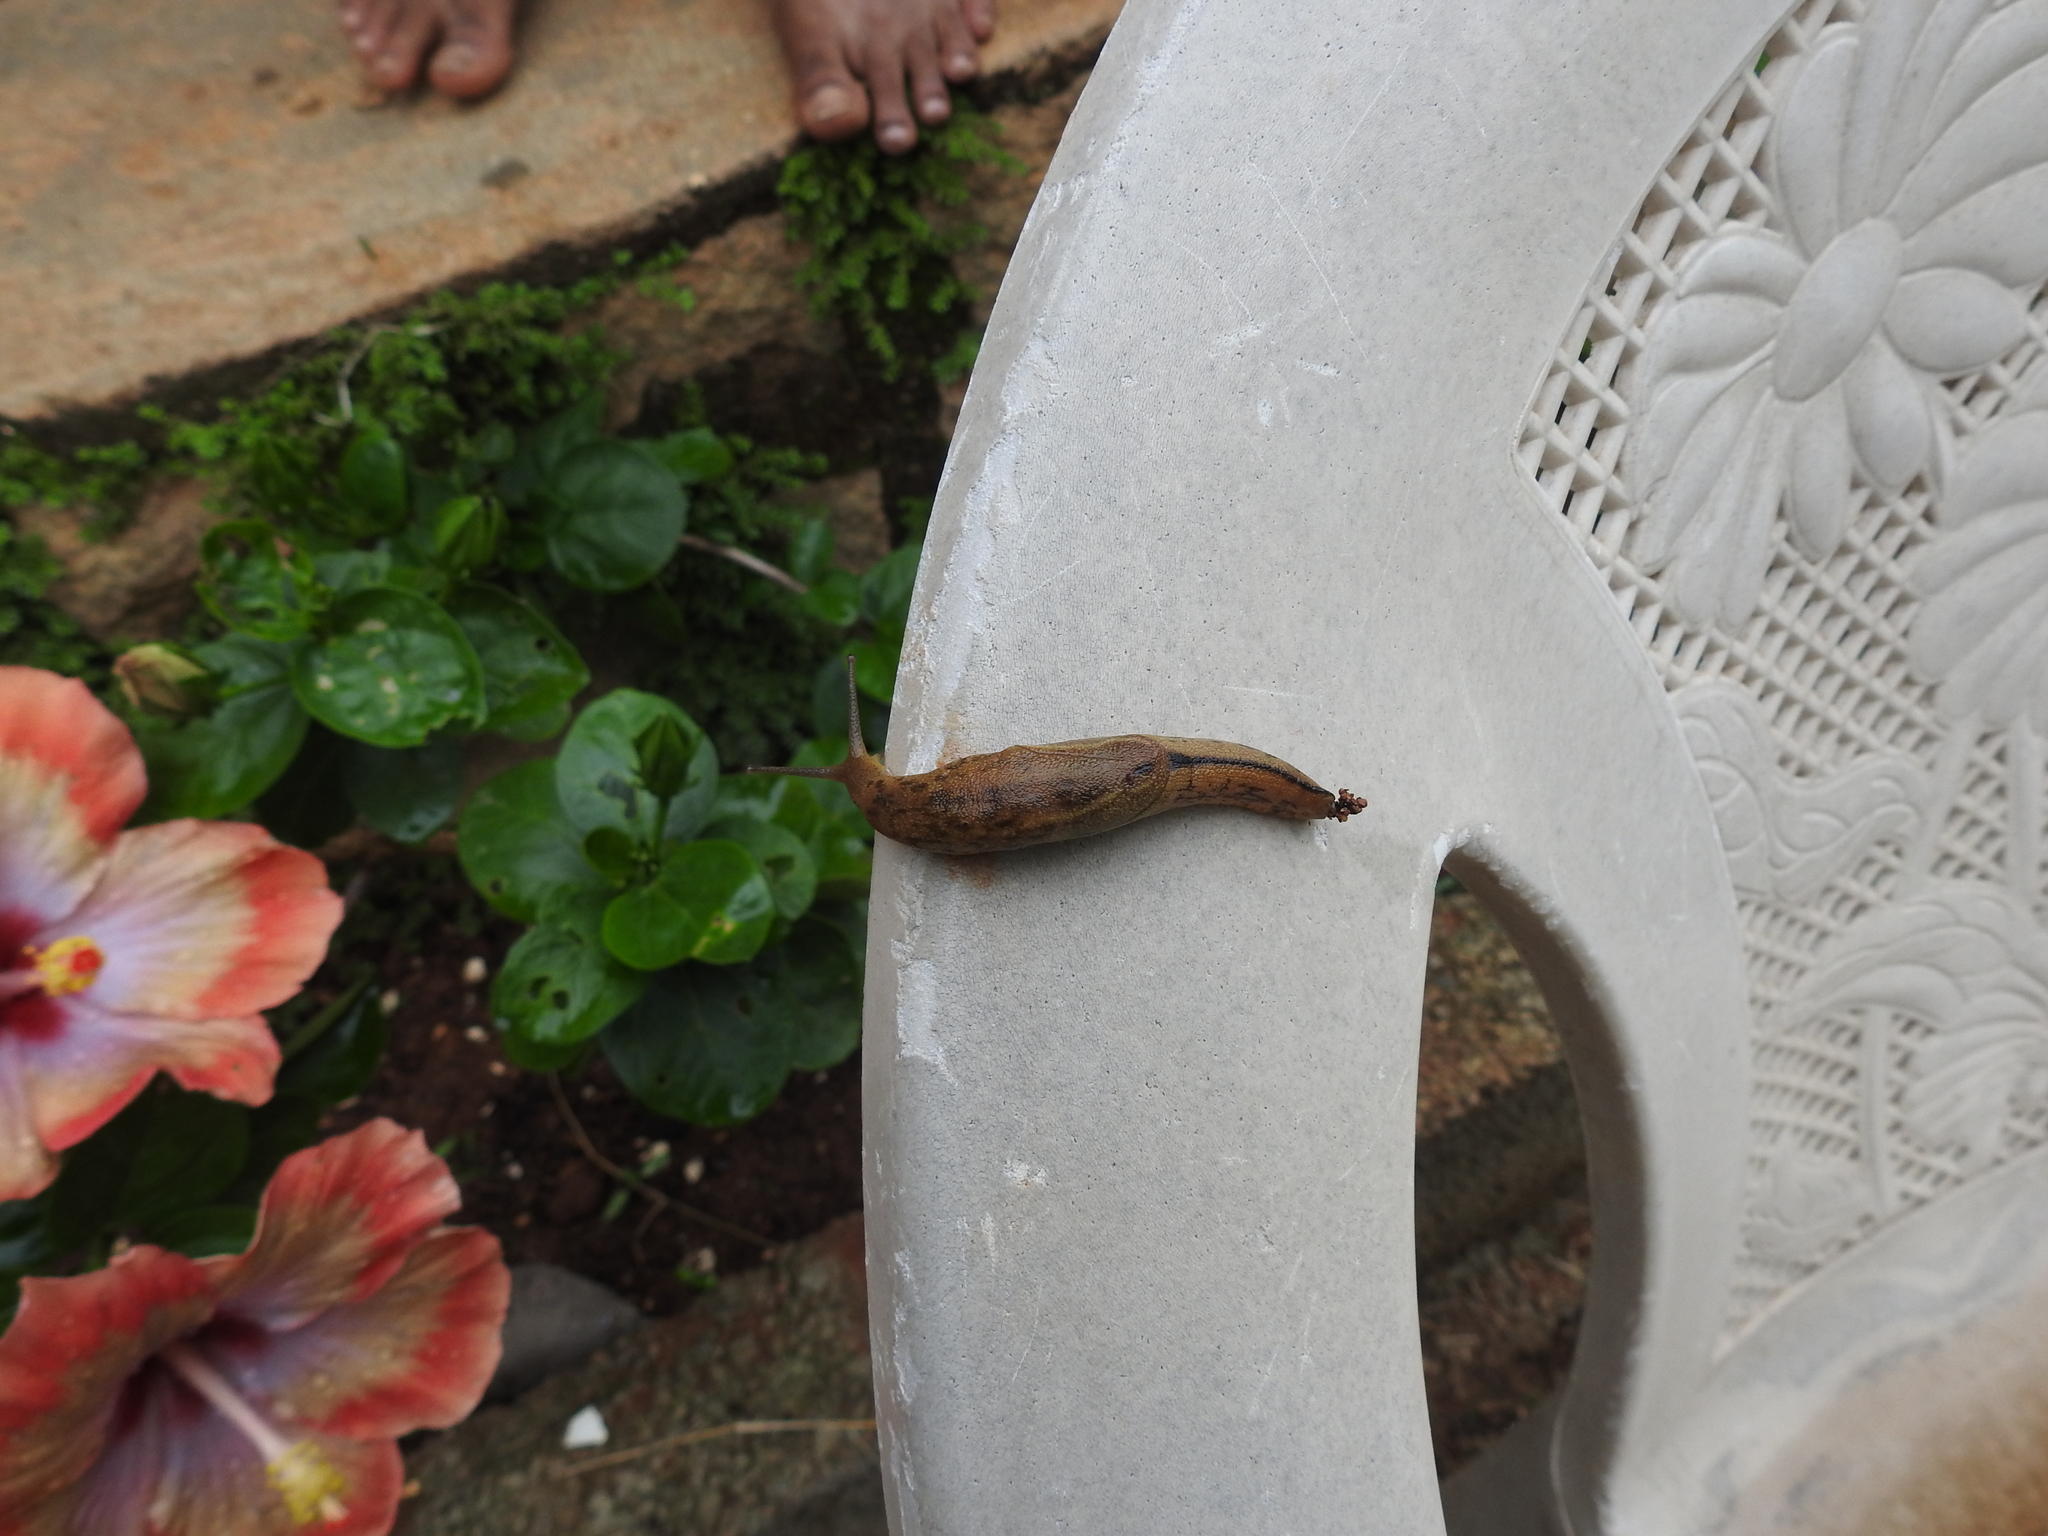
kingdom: Animalia
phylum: Mollusca
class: Gastropoda
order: Stylommatophora
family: Ariophantidae
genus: Mariaella
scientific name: Mariaella dussumieri
